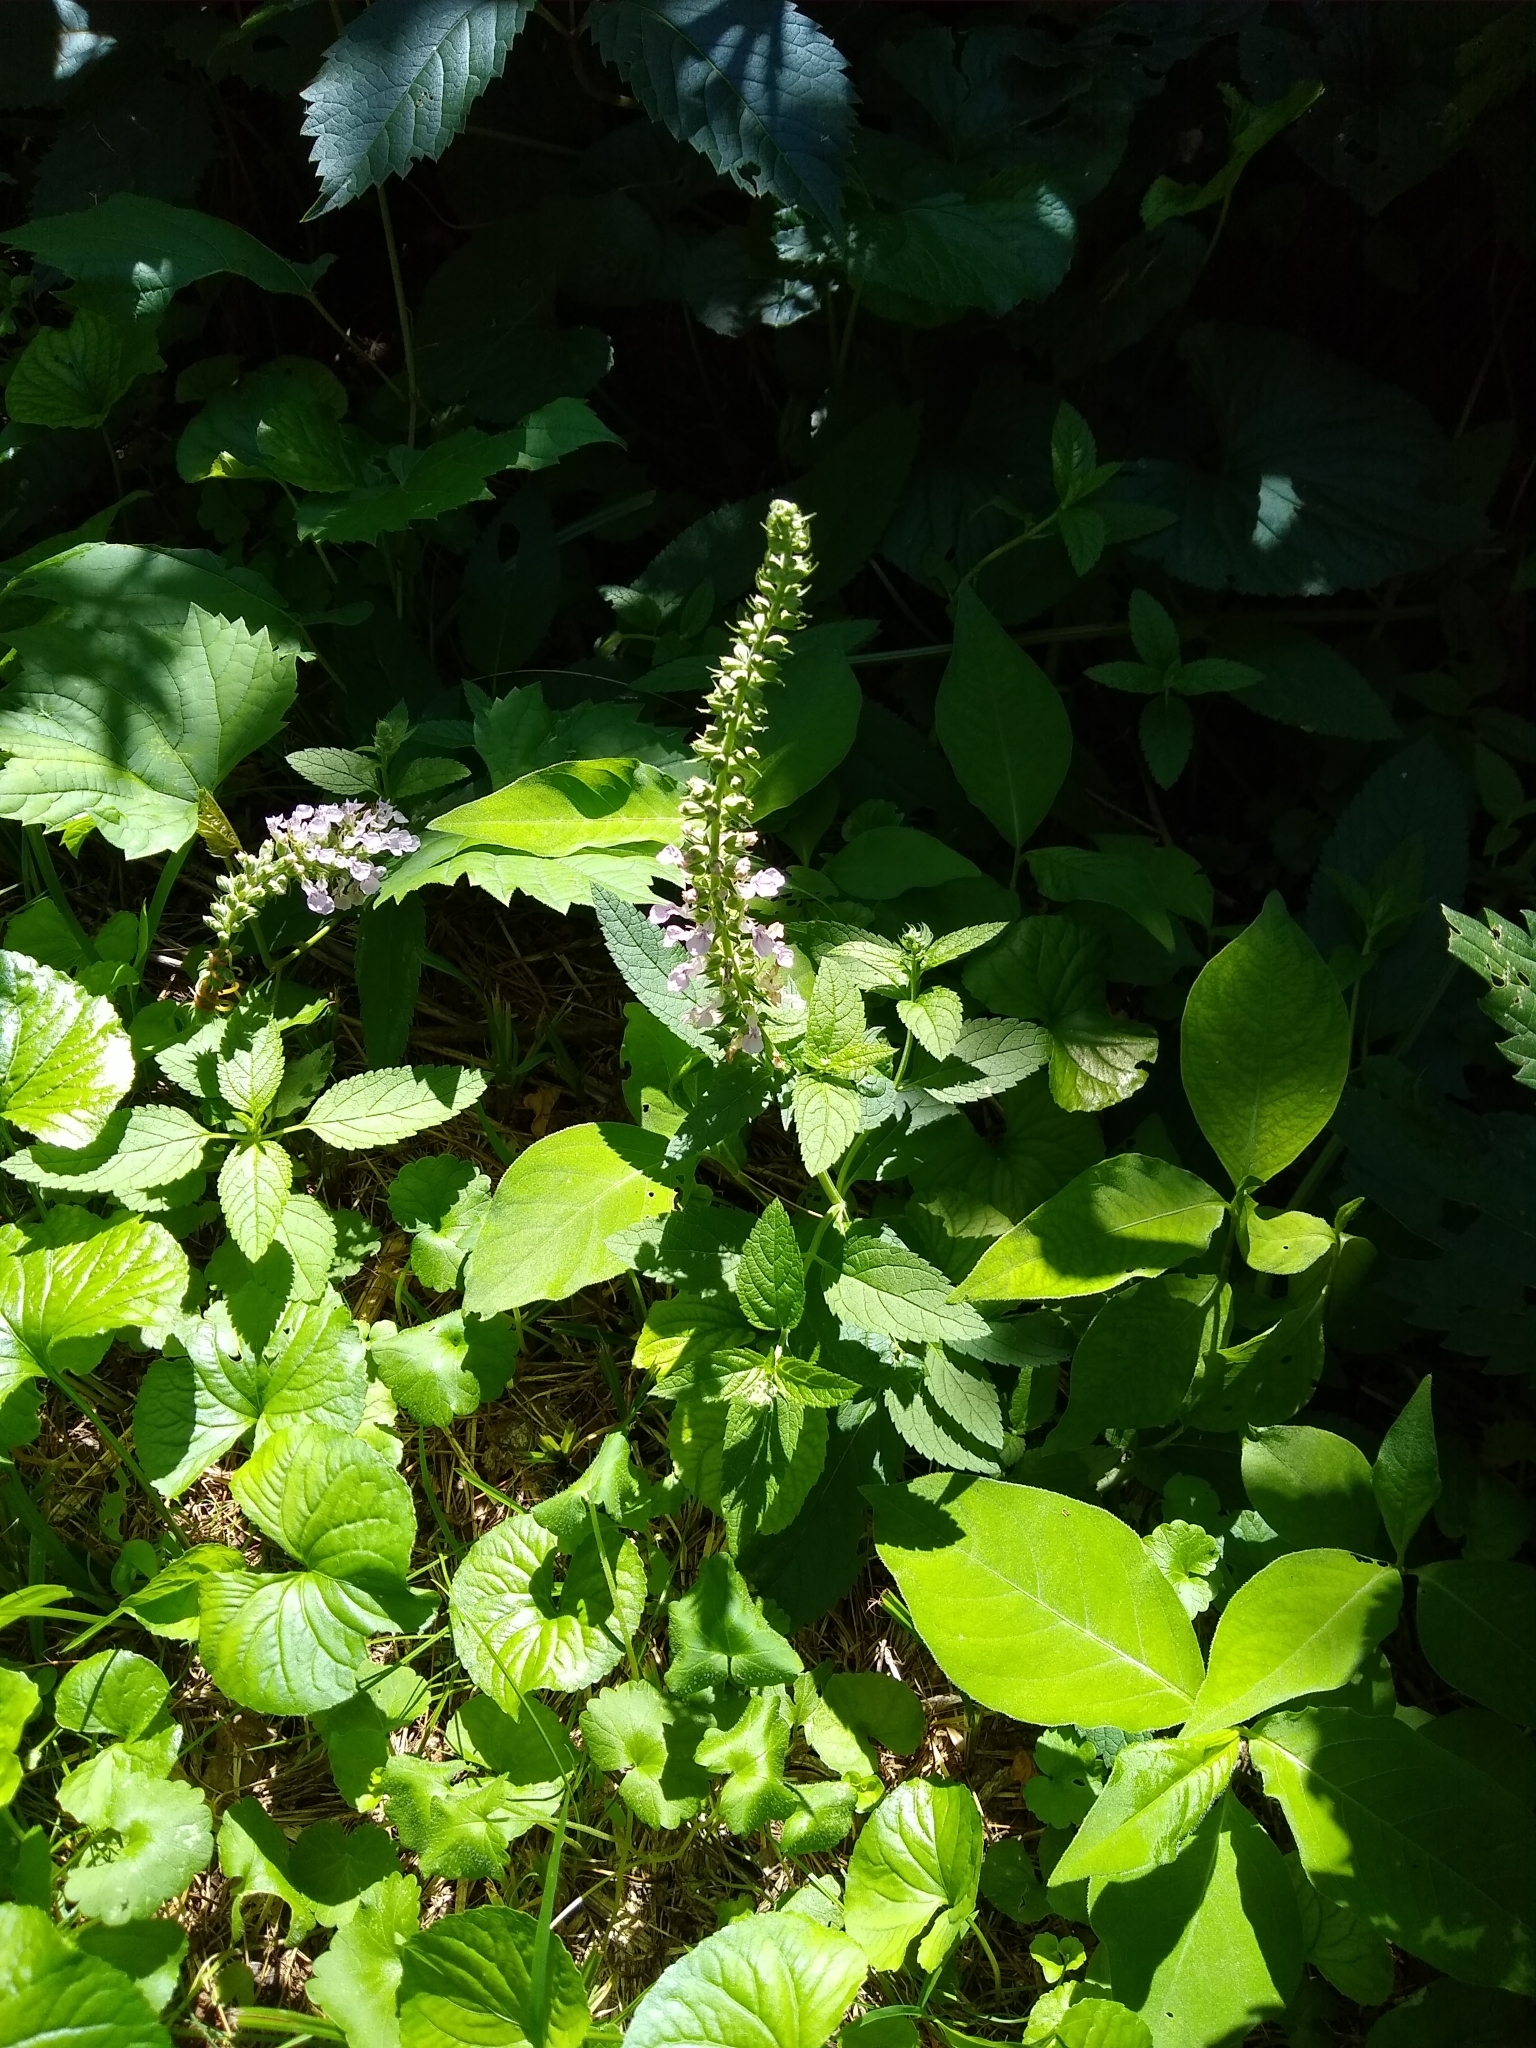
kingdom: Plantae
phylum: Tracheophyta
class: Magnoliopsida
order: Lamiales
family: Lamiaceae
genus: Teucrium
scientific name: Teucrium canadense
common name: American germander
